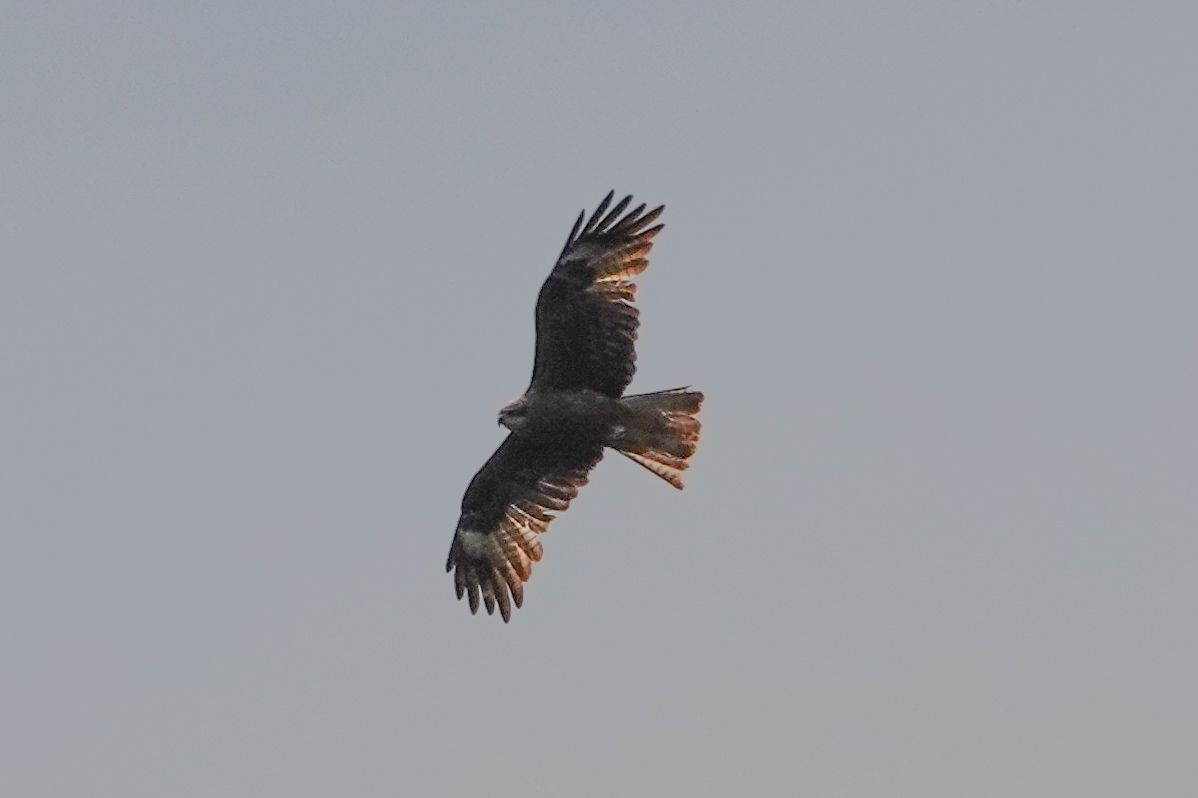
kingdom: Animalia
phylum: Chordata
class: Aves
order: Accipitriformes
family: Accipitridae
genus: Milvus
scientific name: Milvus migrans
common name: Black kite
